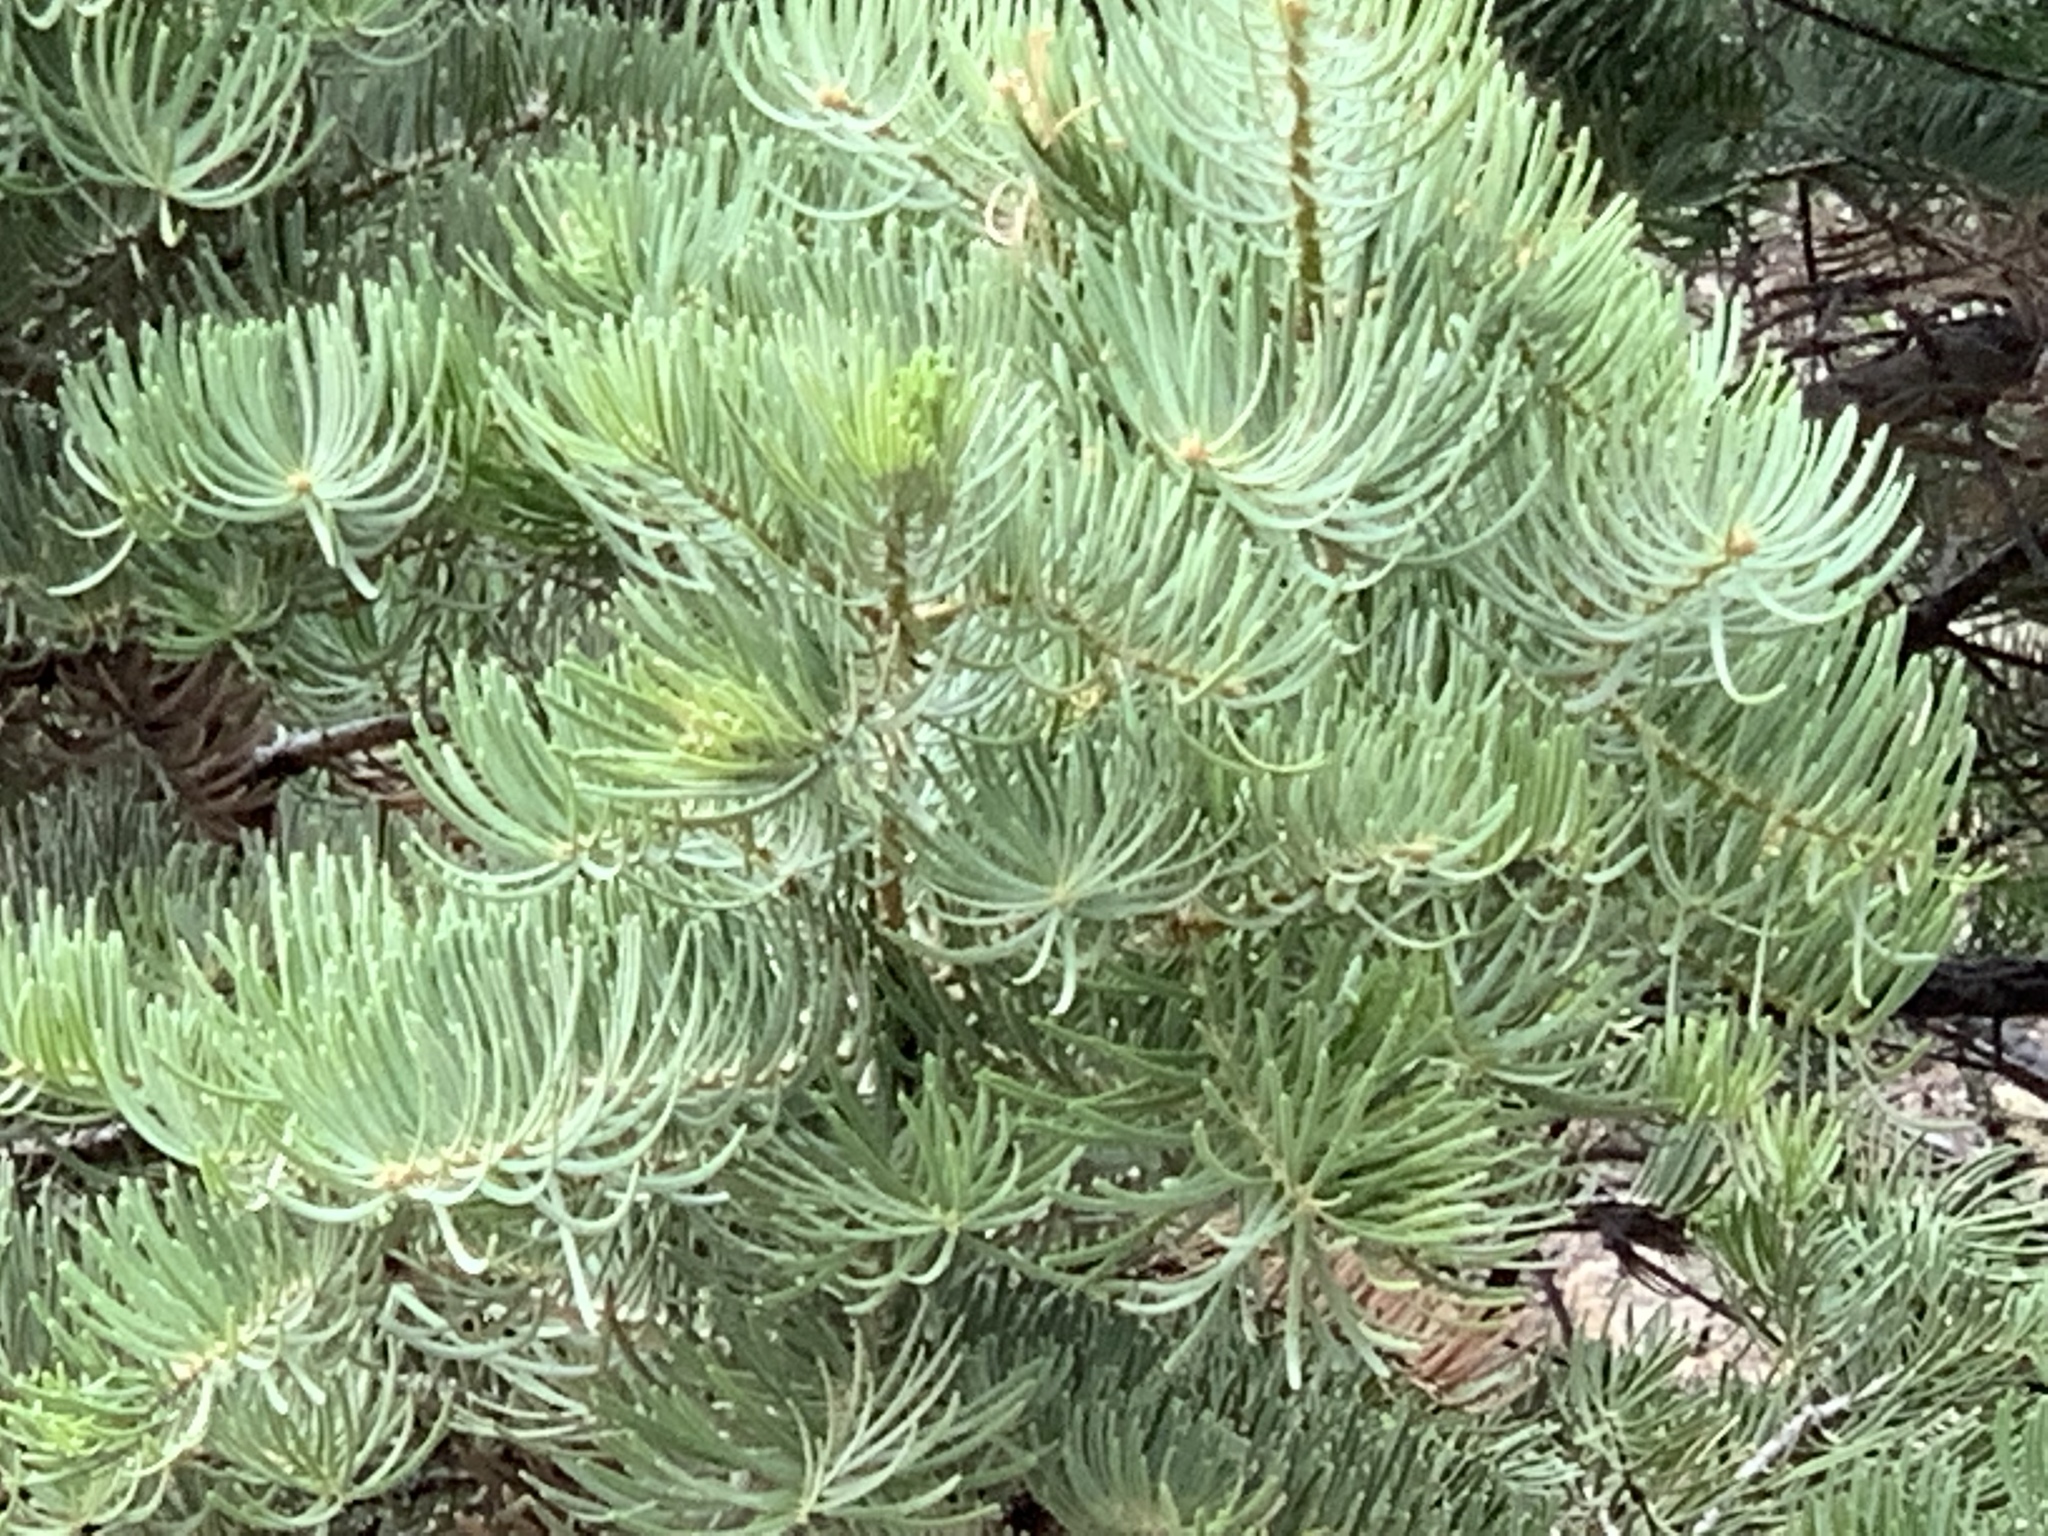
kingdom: Plantae
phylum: Tracheophyta
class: Pinopsida
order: Pinales
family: Pinaceae
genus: Abies
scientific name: Abies concolor
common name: Colorado fir
